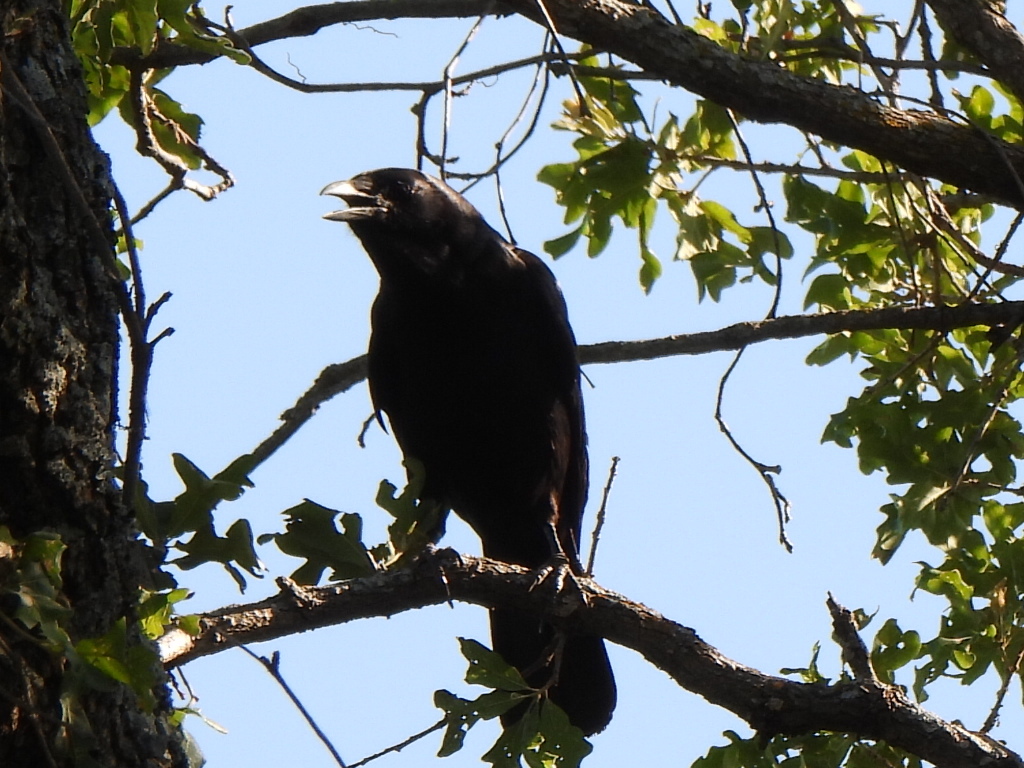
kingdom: Animalia
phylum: Chordata
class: Aves
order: Passeriformes
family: Corvidae
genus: Corvus
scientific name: Corvus brachyrhynchos
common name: American crow
